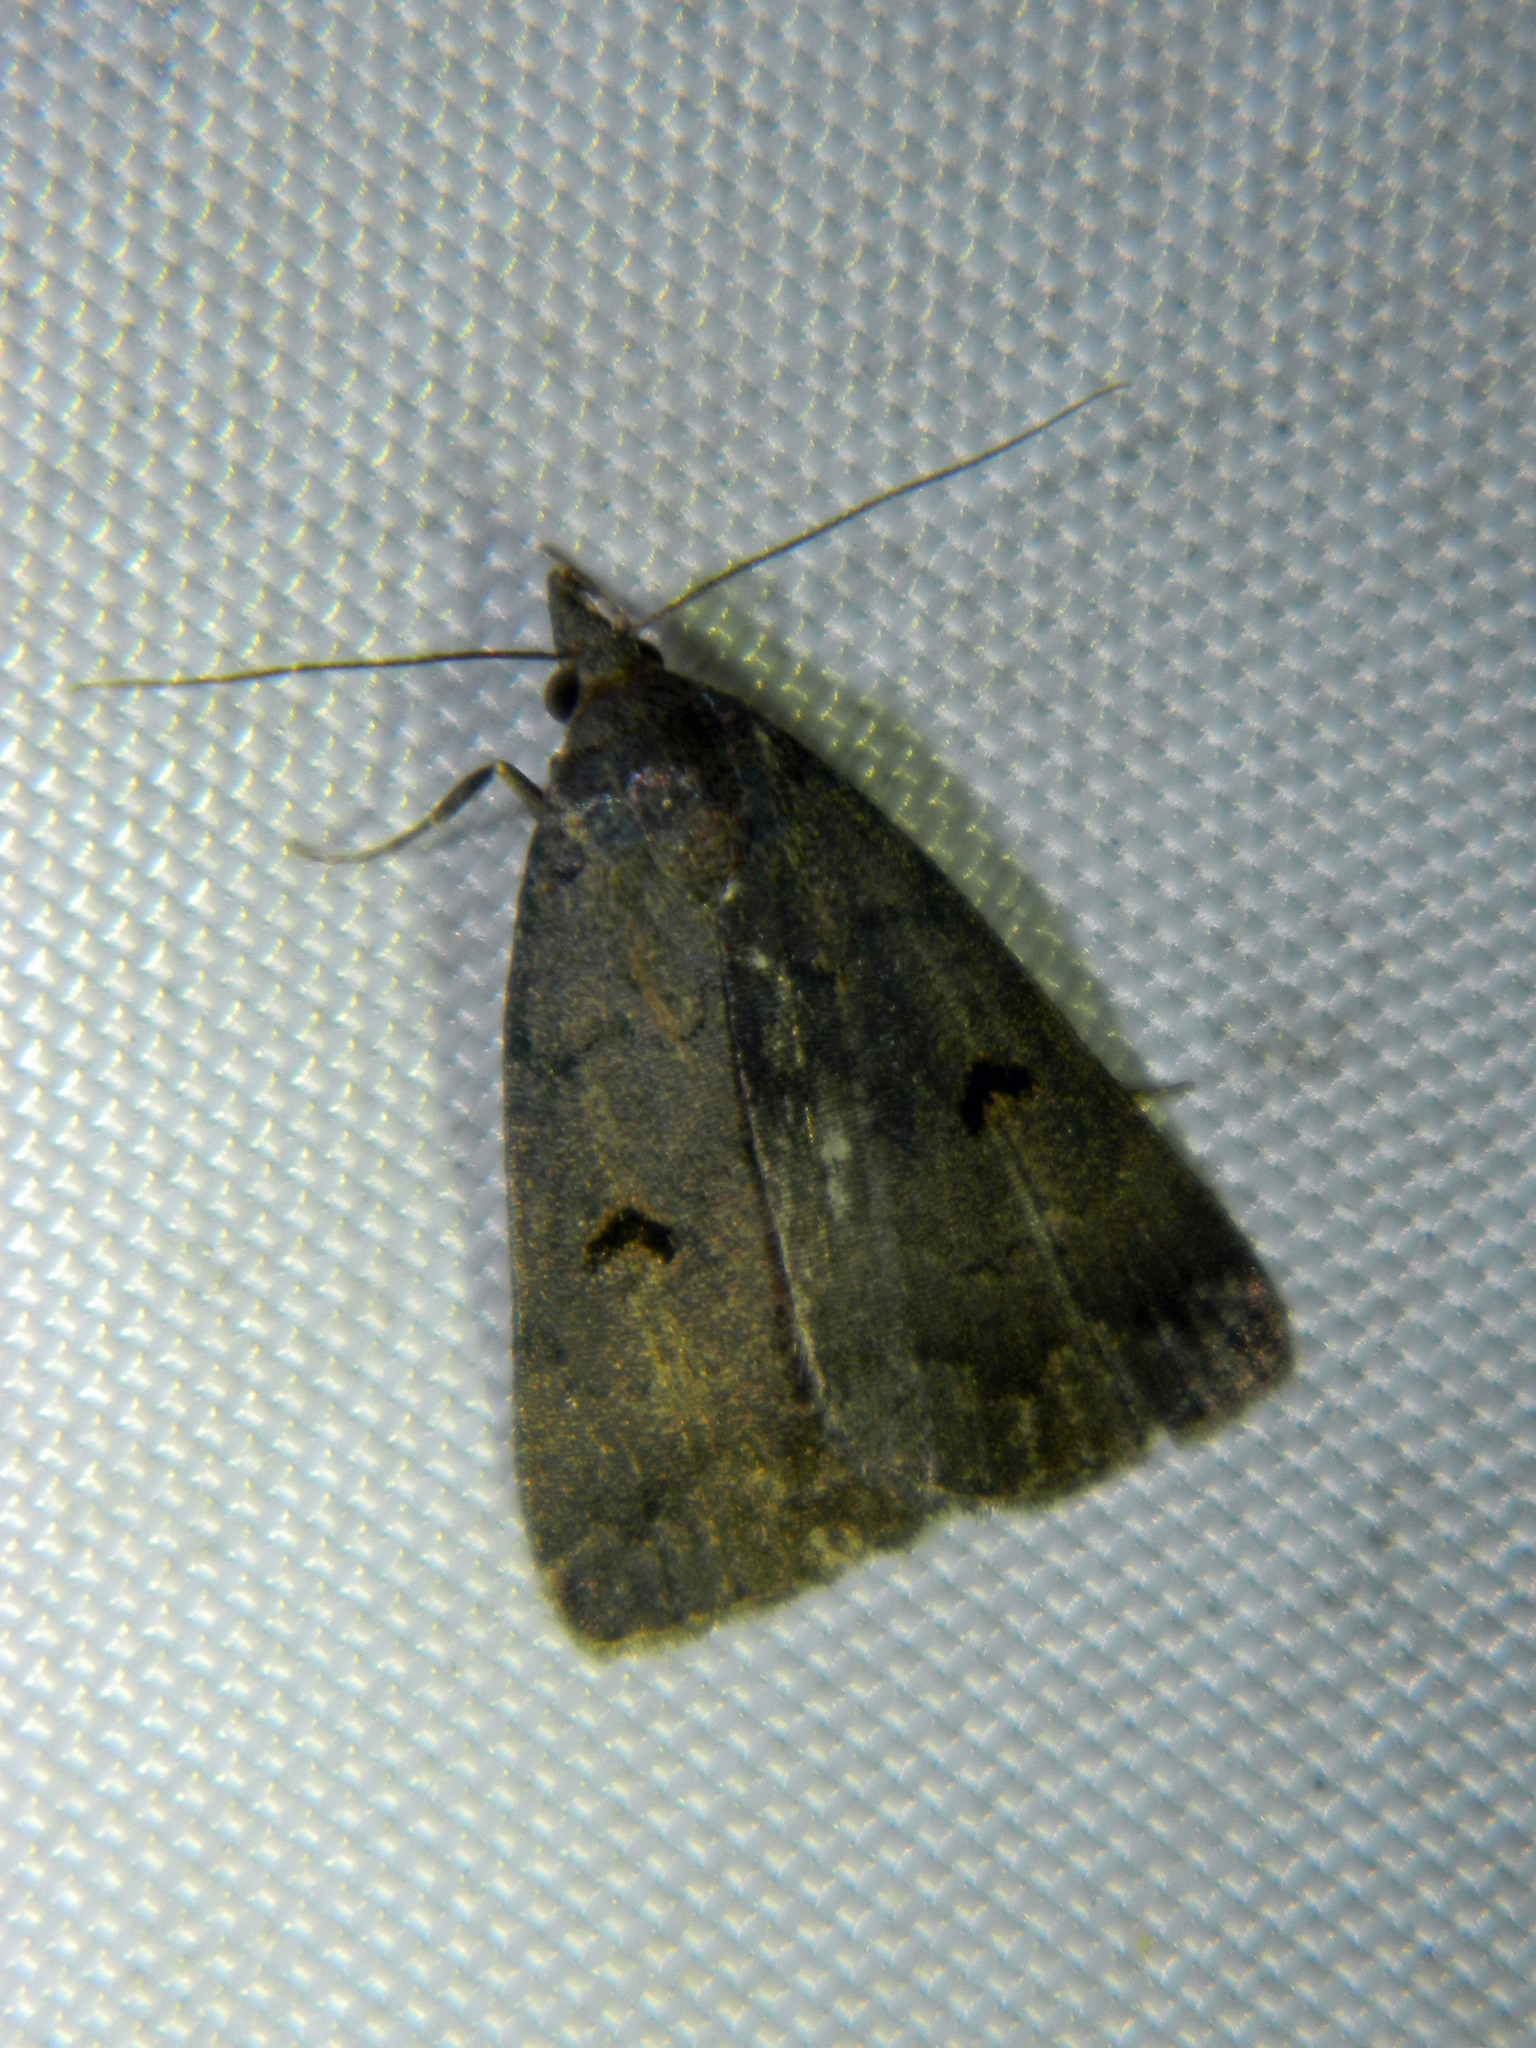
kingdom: Animalia
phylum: Arthropoda
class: Insecta
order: Lepidoptera
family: Erebidae
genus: Phalaenostola
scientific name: Phalaenostola hanhami
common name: Hanham's owlet
